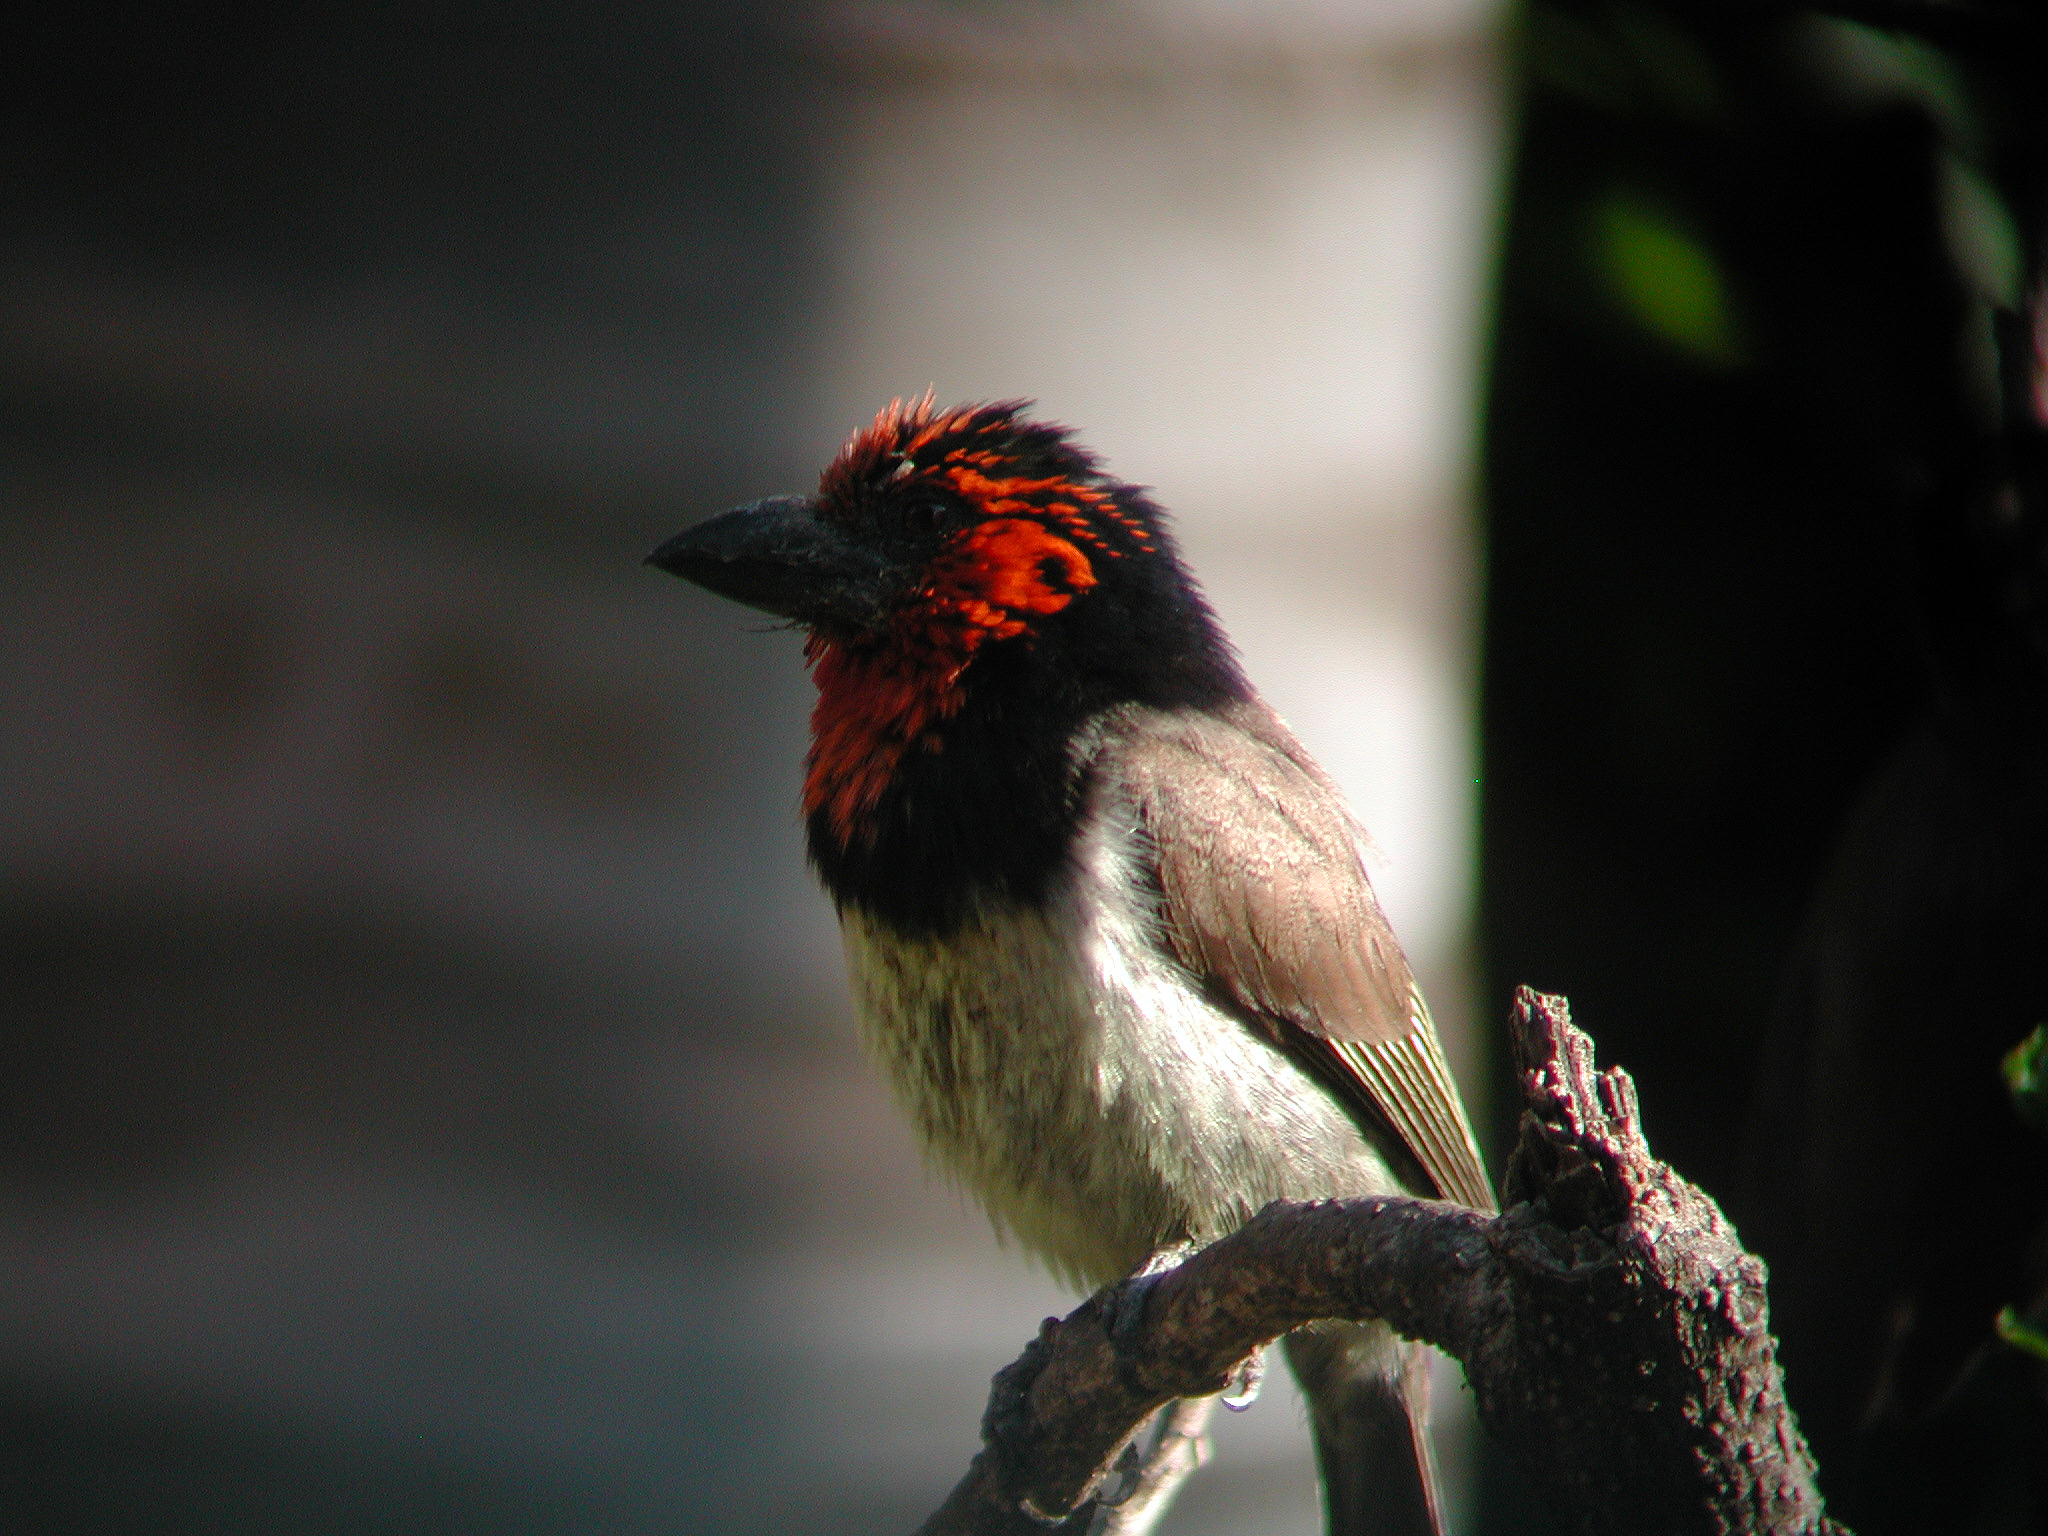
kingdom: Animalia
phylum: Chordata
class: Aves
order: Piciformes
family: Lybiidae
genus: Lybius
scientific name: Lybius torquatus
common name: Black-collared barbet
